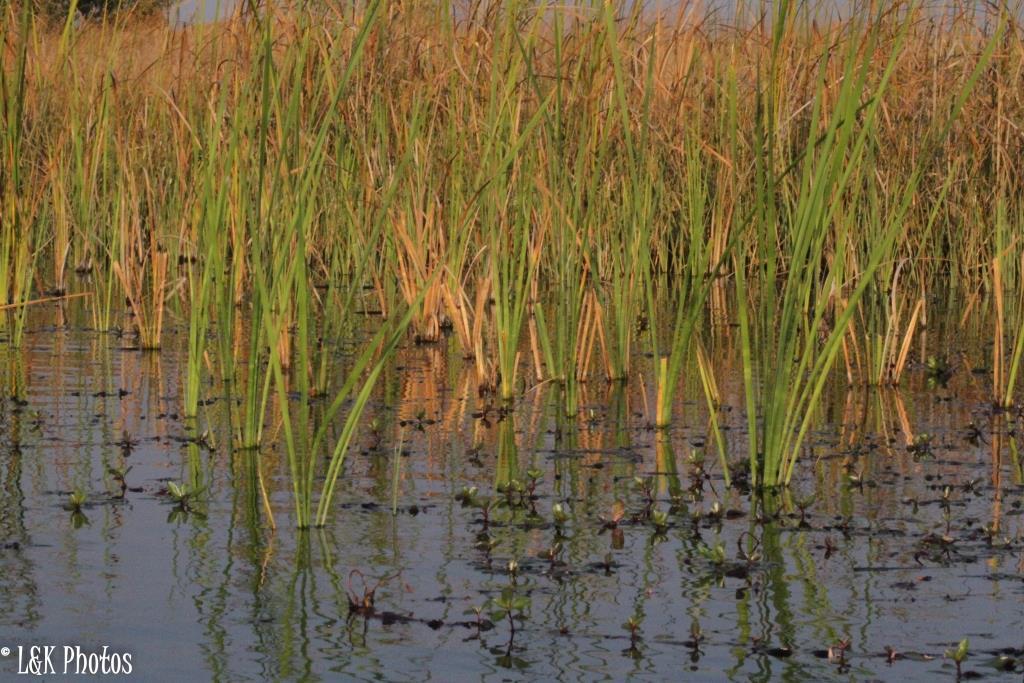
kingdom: Plantae
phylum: Tracheophyta
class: Liliopsida
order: Poales
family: Typhaceae
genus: Typha
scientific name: Typha capensis
